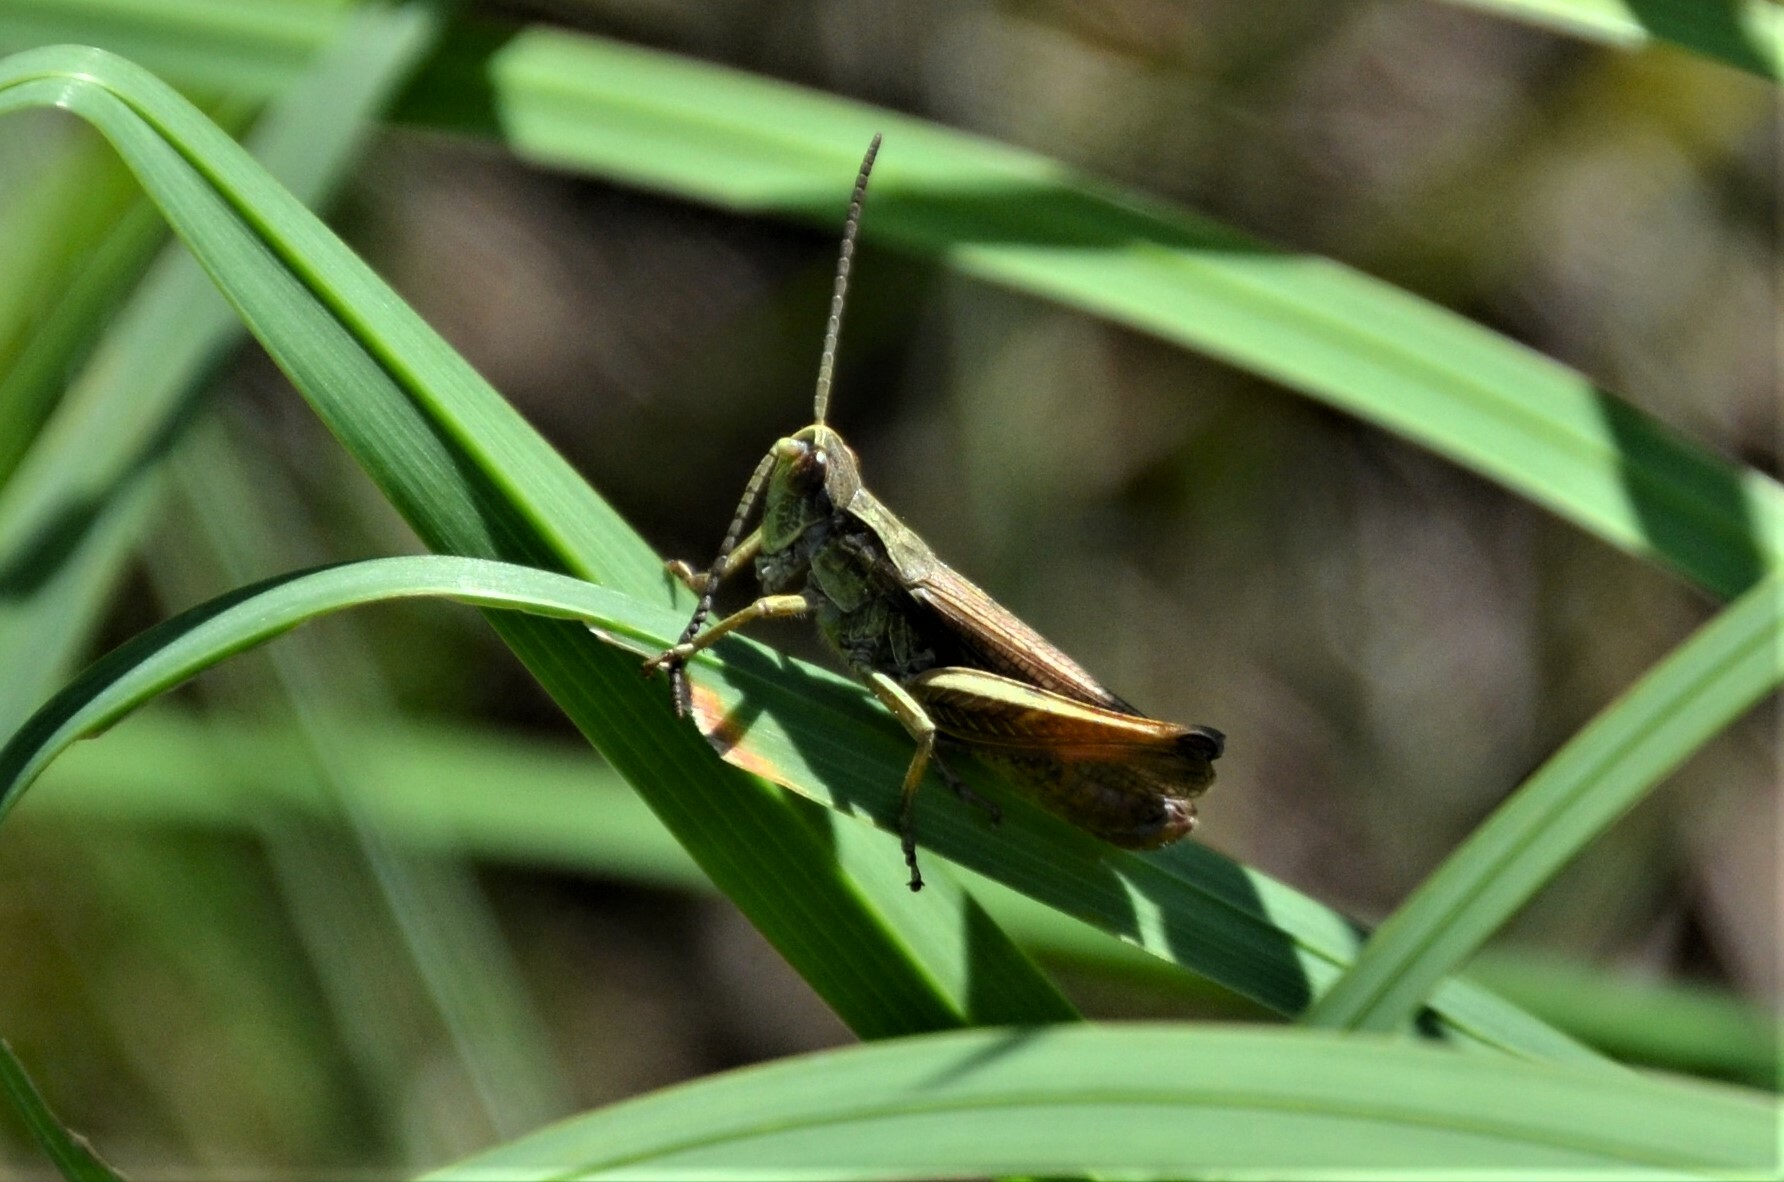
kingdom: Animalia
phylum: Arthropoda
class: Insecta
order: Orthoptera
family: Acrididae
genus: Chorthippus
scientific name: Chorthippus apricarius
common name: Upland field grasshopper
